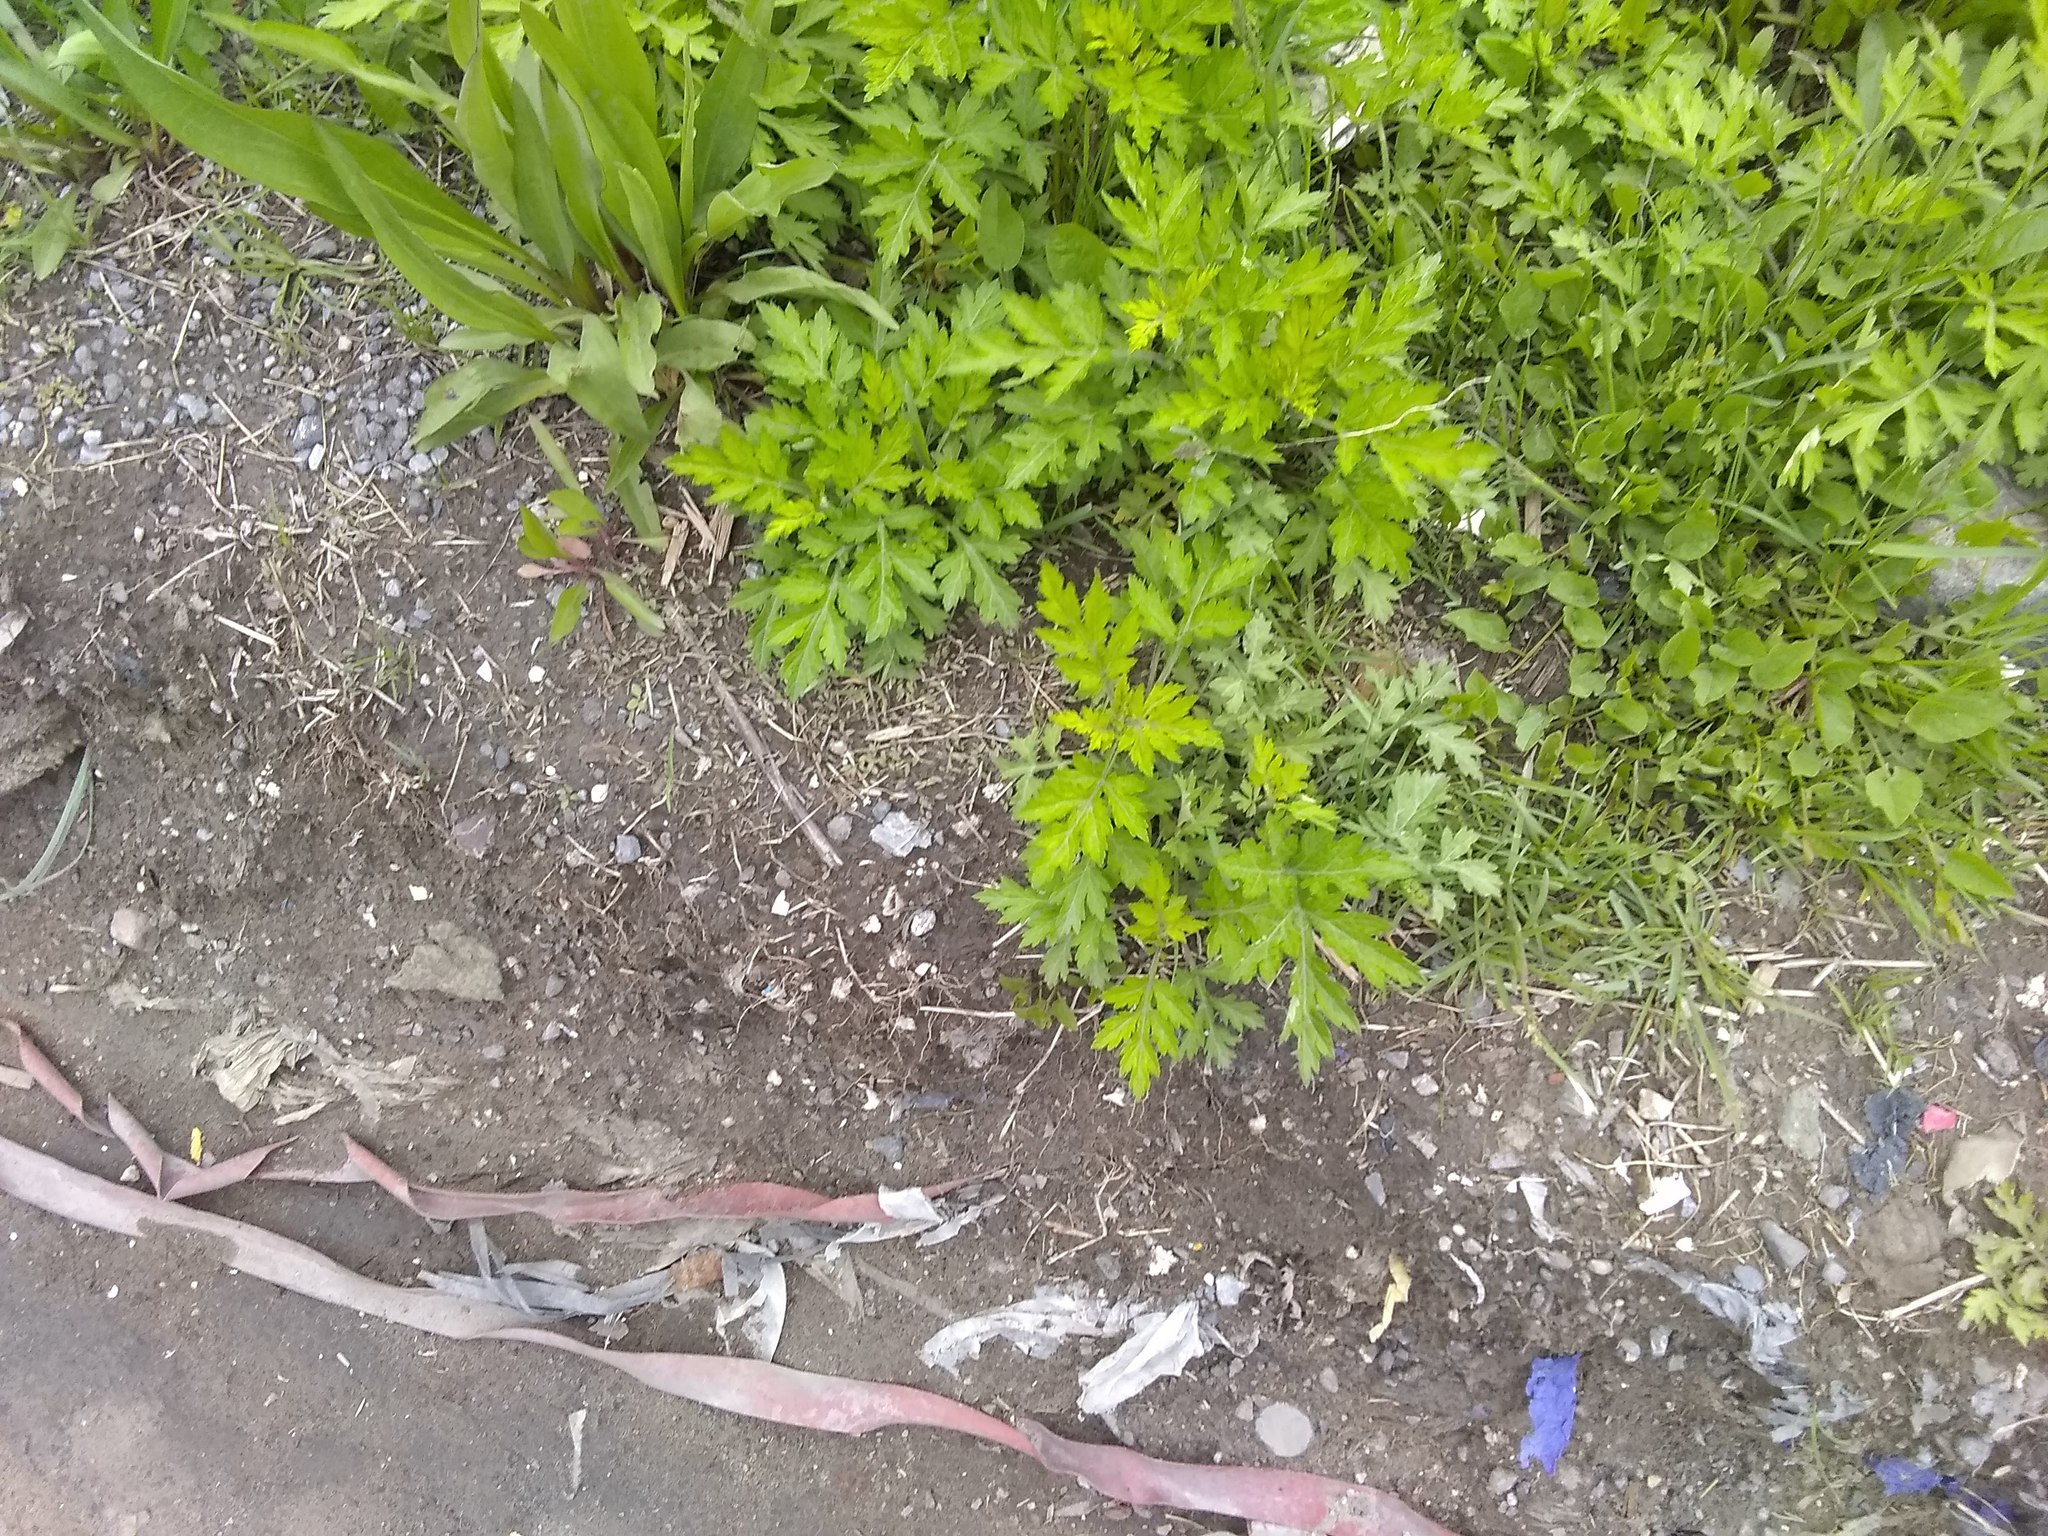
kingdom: Plantae
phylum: Tracheophyta
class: Magnoliopsida
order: Asterales
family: Asteraceae
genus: Artemisia
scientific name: Artemisia vulgaris
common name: Mugwort
